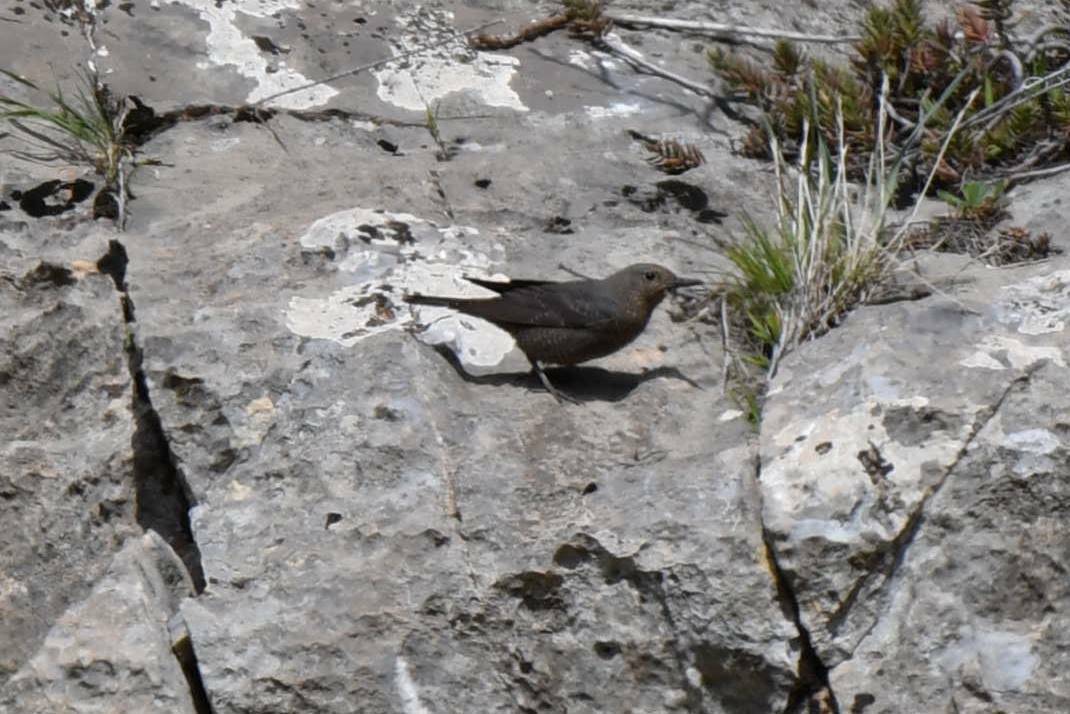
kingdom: Animalia
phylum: Chordata
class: Aves
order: Passeriformes
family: Muscicapidae
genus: Monticola
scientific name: Monticola solitarius
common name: Blue rock thrush
